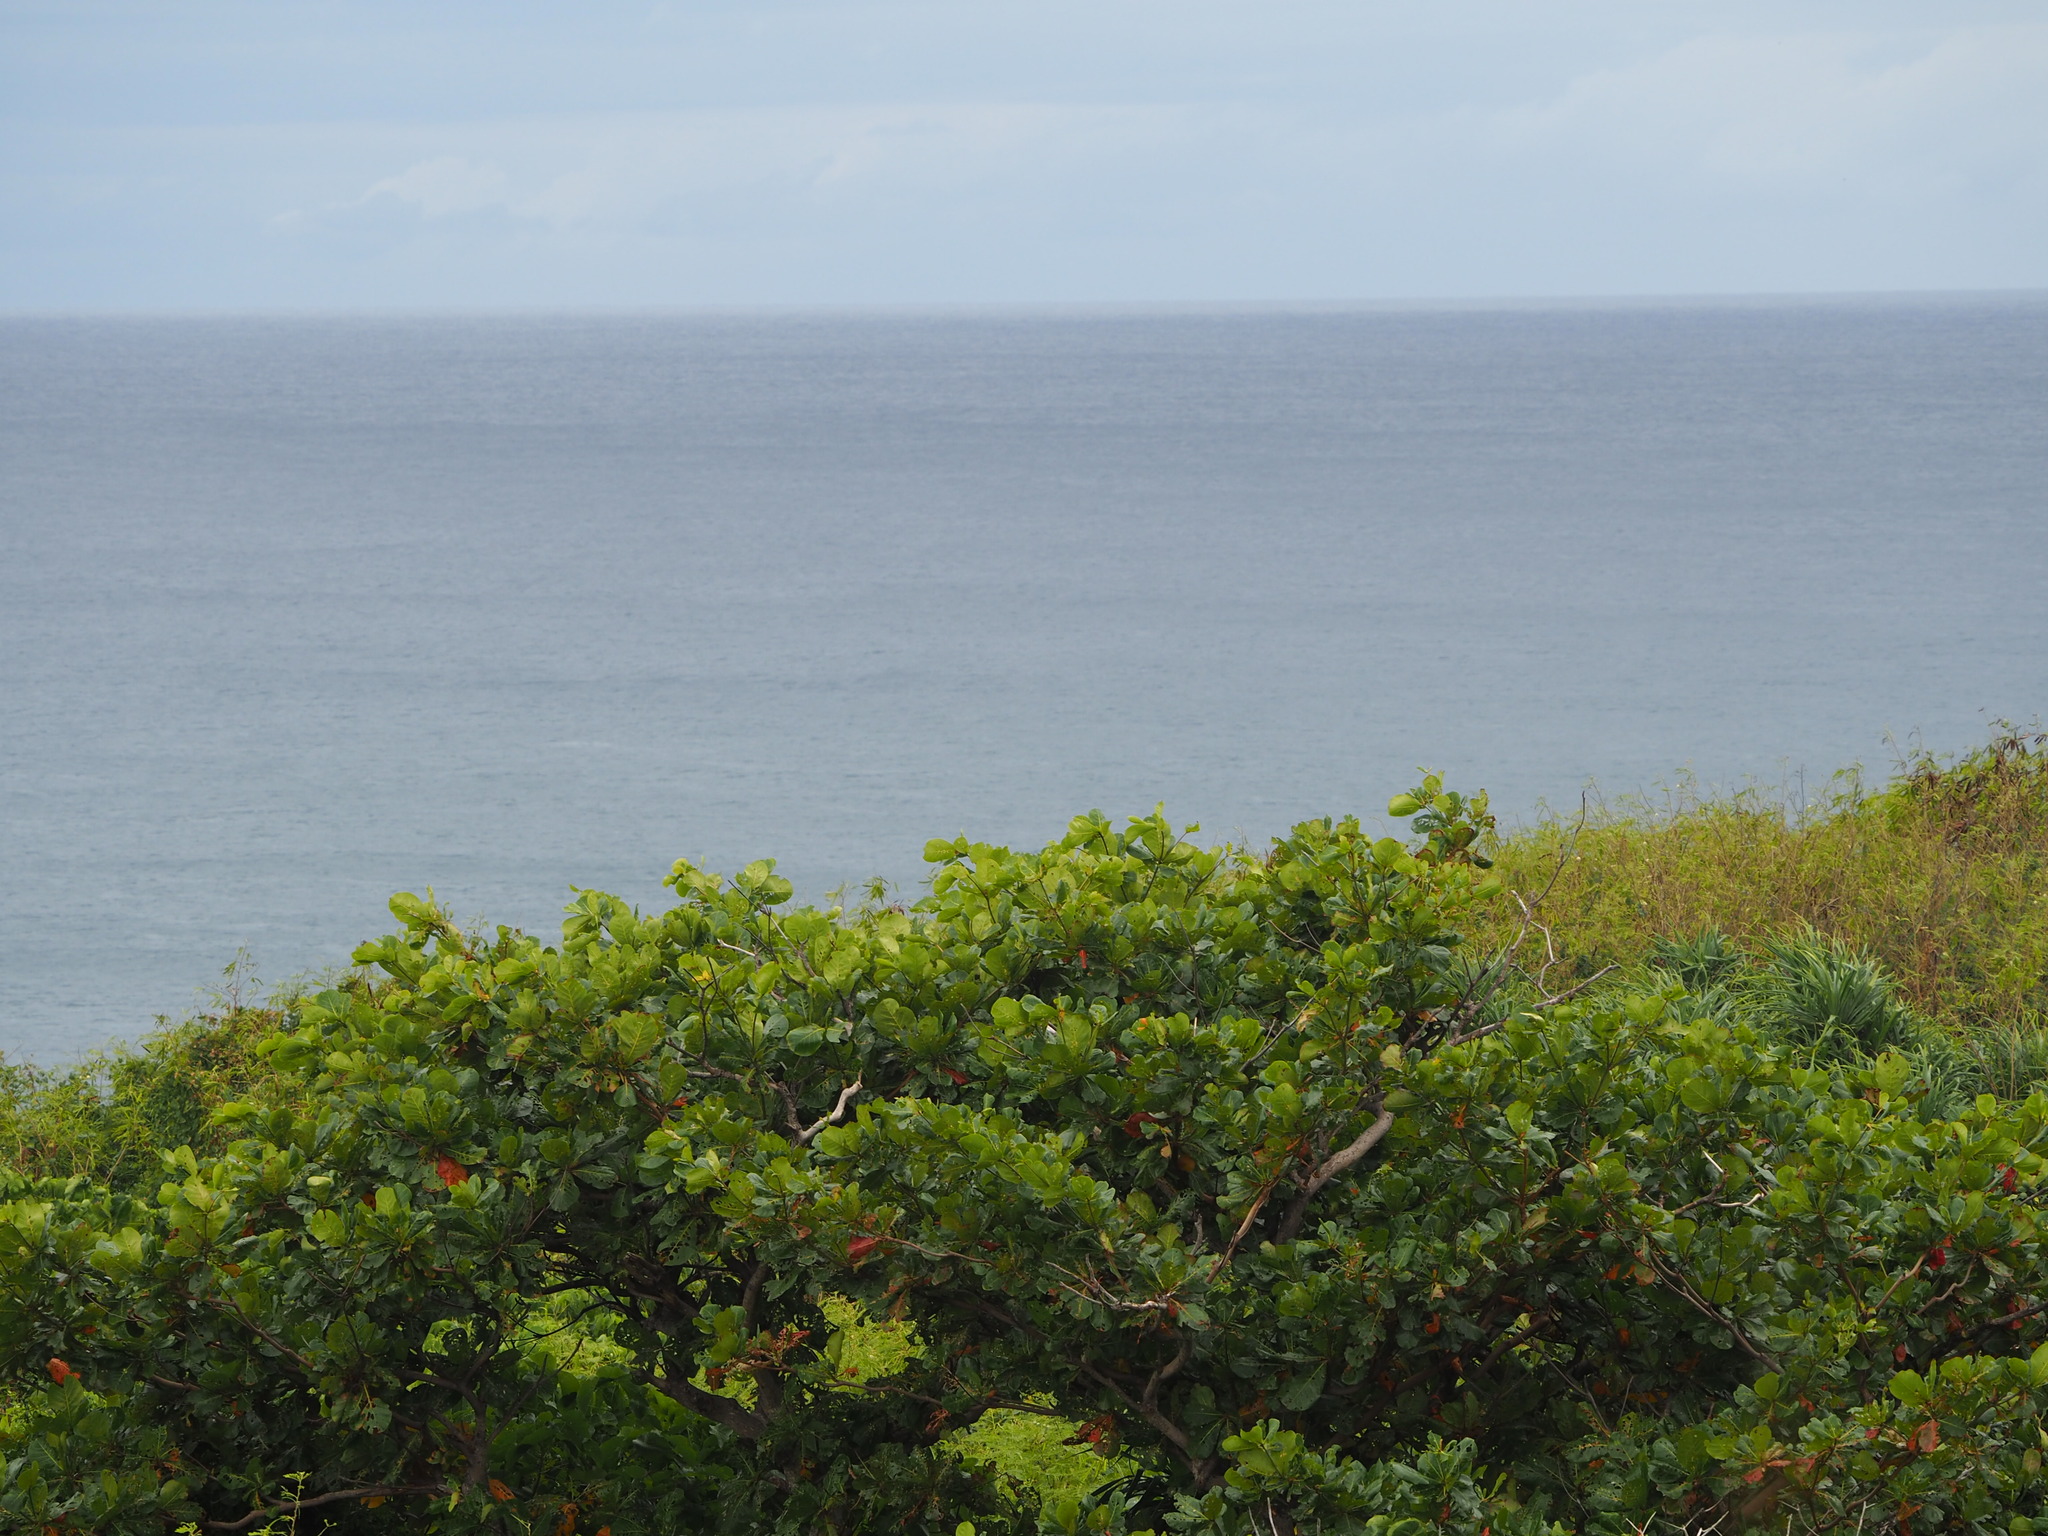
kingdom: Plantae
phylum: Tracheophyta
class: Magnoliopsida
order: Myrtales
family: Combretaceae
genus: Terminalia
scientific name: Terminalia catappa
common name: Tropical almond
